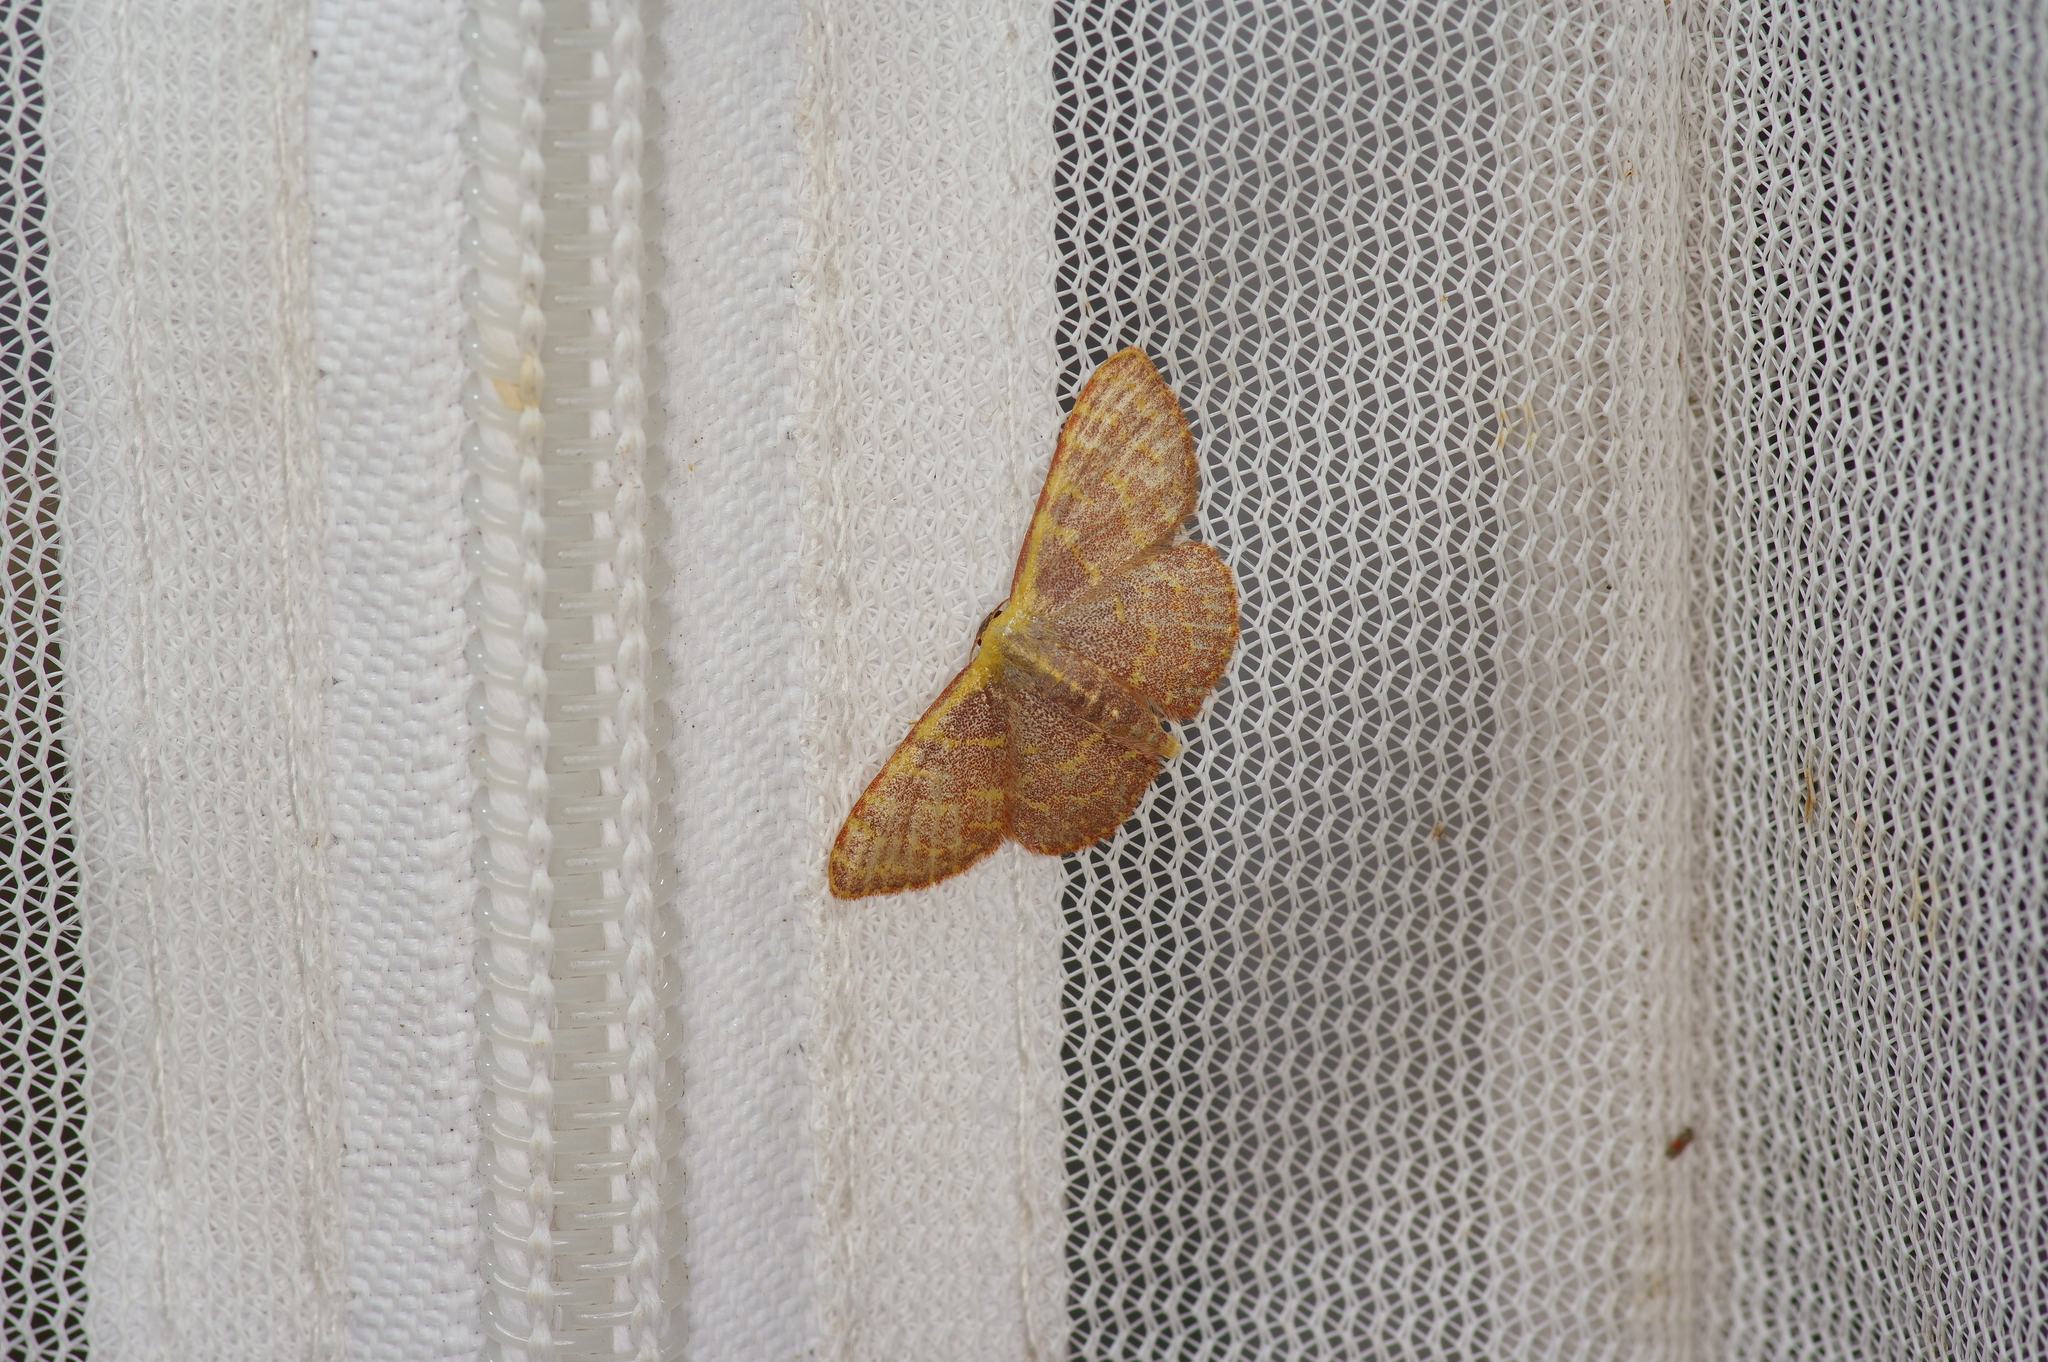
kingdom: Animalia
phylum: Arthropoda
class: Insecta
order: Lepidoptera
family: Geometridae
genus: Leptostales
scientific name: Leptostales pannaria
